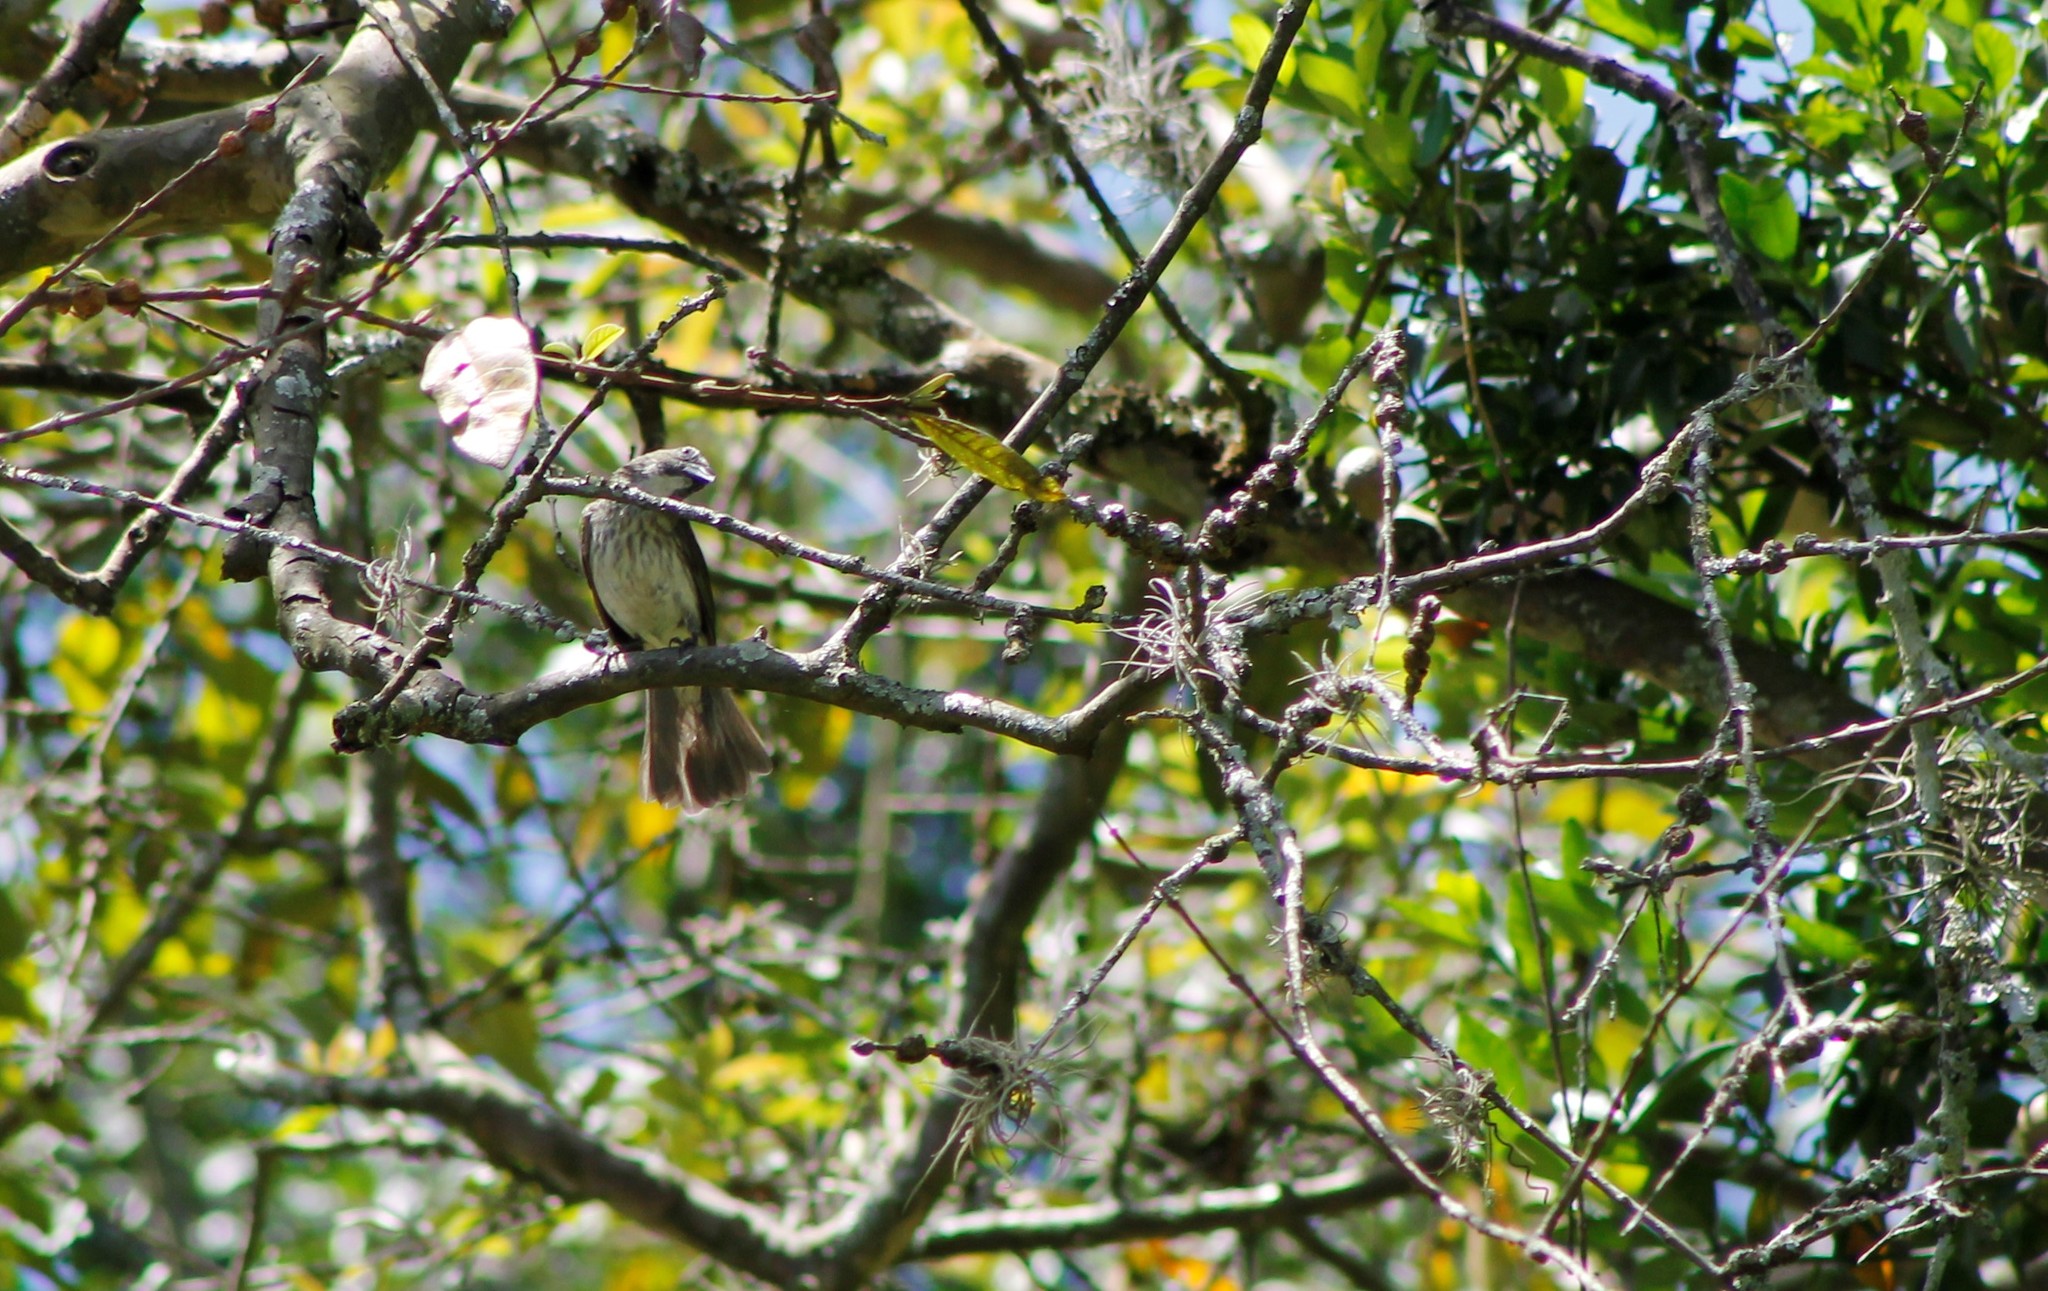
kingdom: Animalia
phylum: Chordata
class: Aves
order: Passeriformes
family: Thraupidae
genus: Saltator
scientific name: Saltator striatipectus
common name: Streaked saltator
